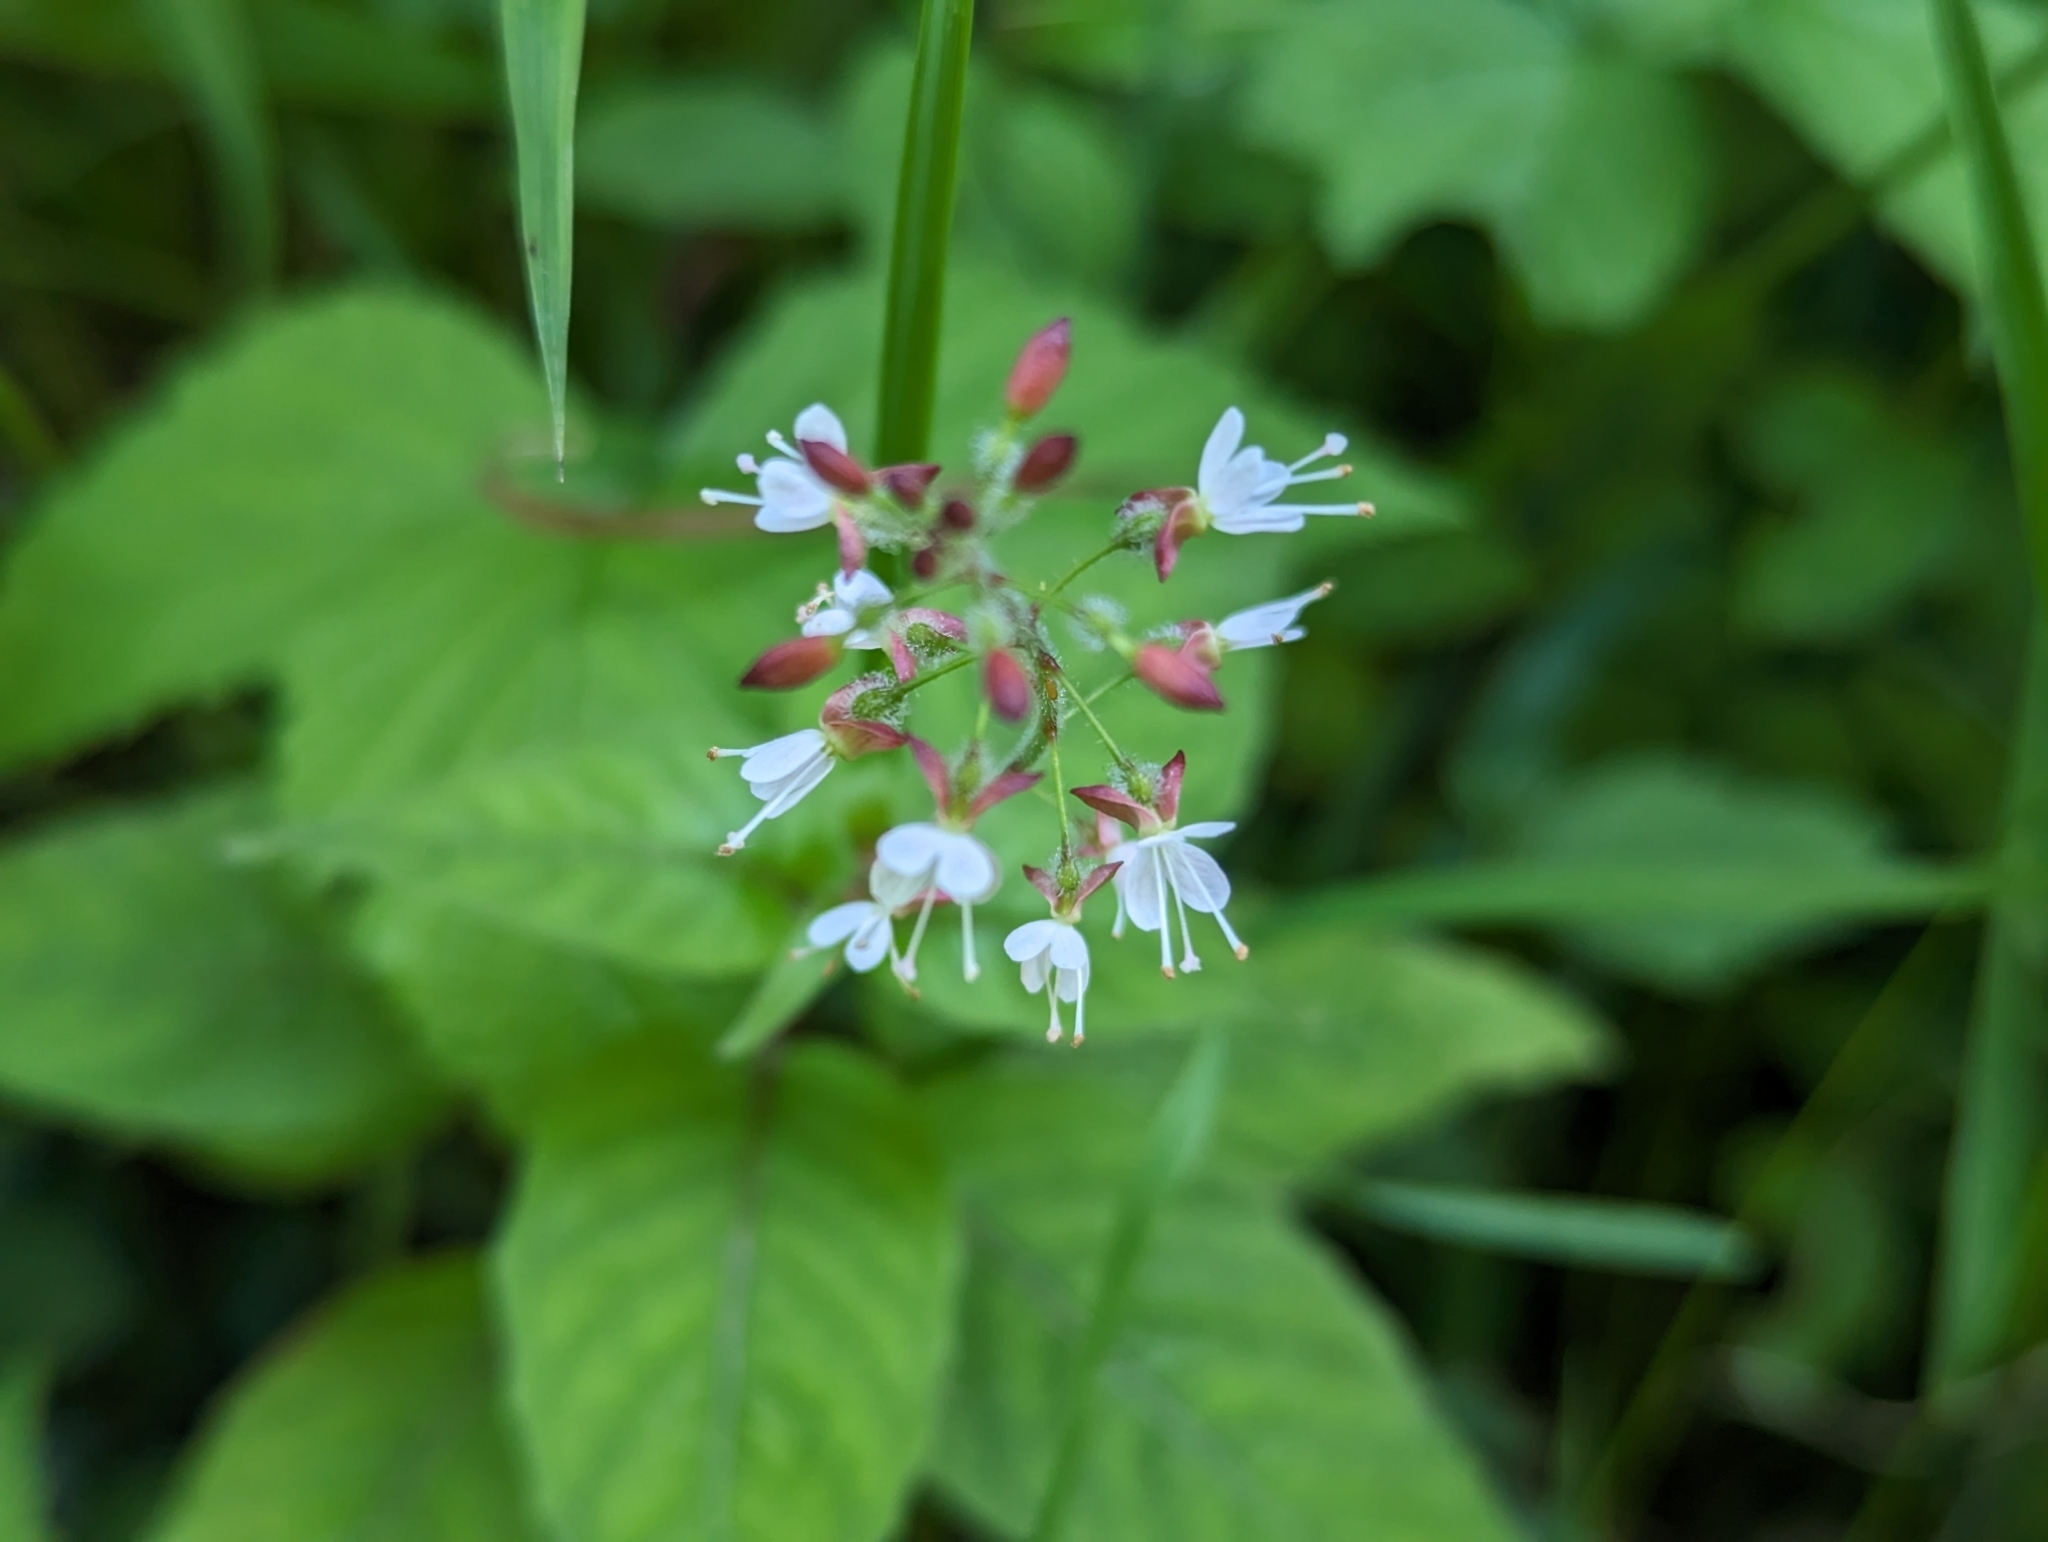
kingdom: Plantae
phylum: Tracheophyta
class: Magnoliopsida
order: Myrtales
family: Onagraceae
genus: Circaea
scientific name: Circaea lutetiana
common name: Enchanter's-nightshade
